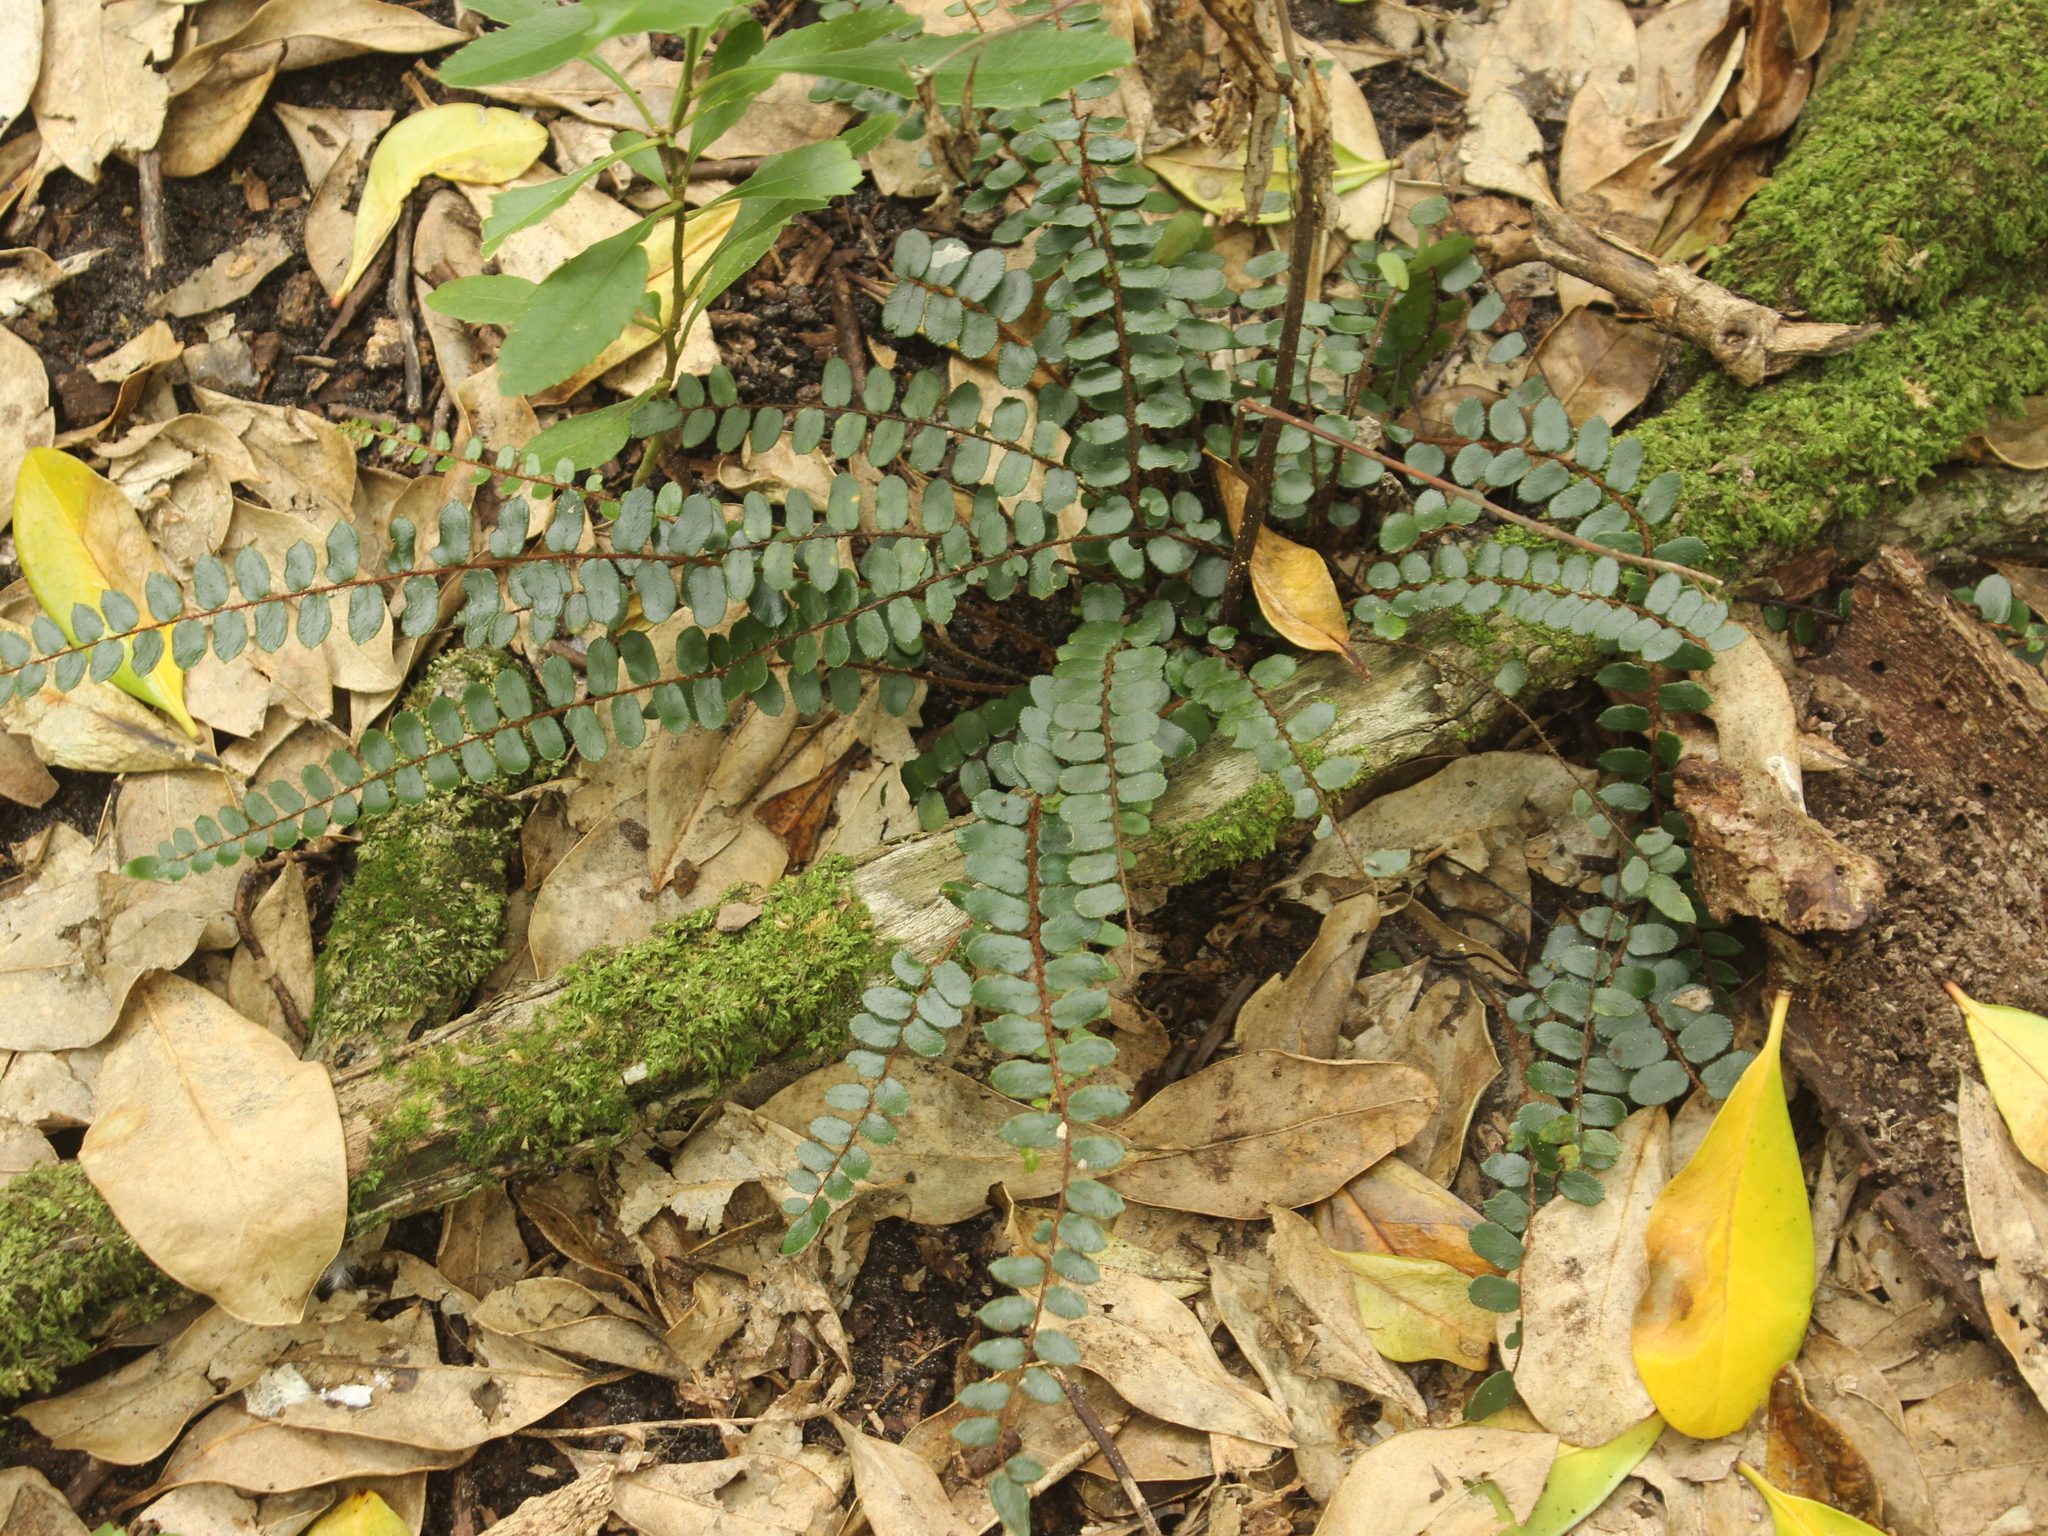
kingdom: Plantae
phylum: Tracheophyta
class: Polypodiopsida
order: Polypodiales
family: Pteridaceae
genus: Pellaea
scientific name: Pellaea rotundifolia
